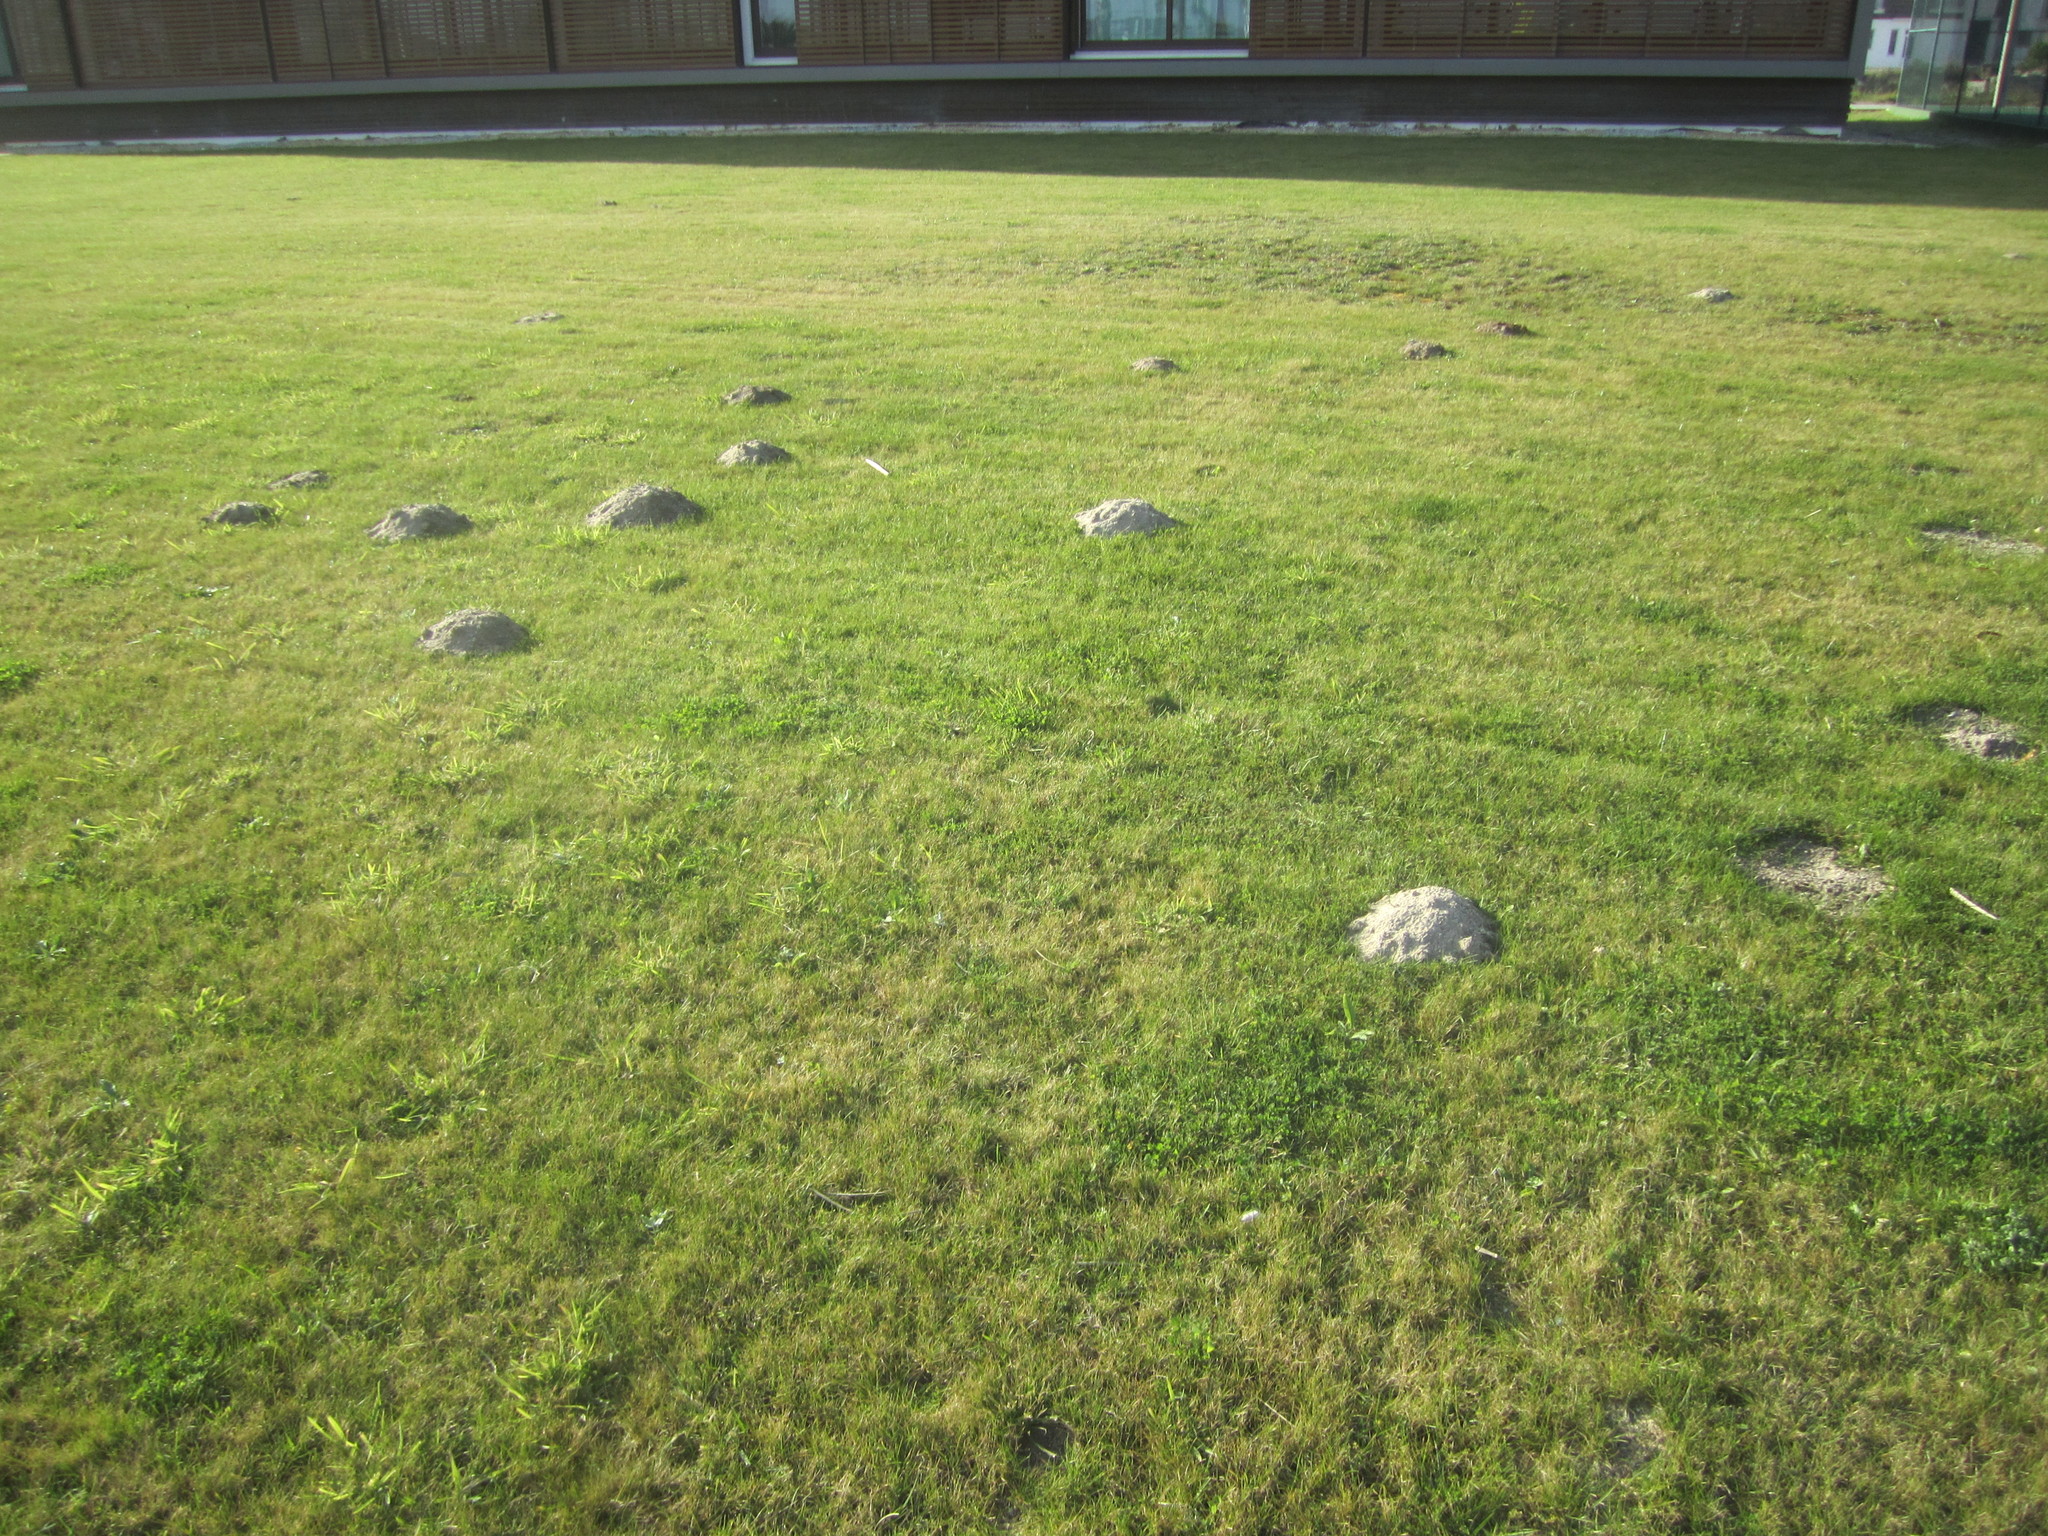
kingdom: Animalia
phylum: Chordata
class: Mammalia
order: Soricomorpha
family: Talpidae
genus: Talpa
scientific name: Talpa occidentalis
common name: Iberian mole
